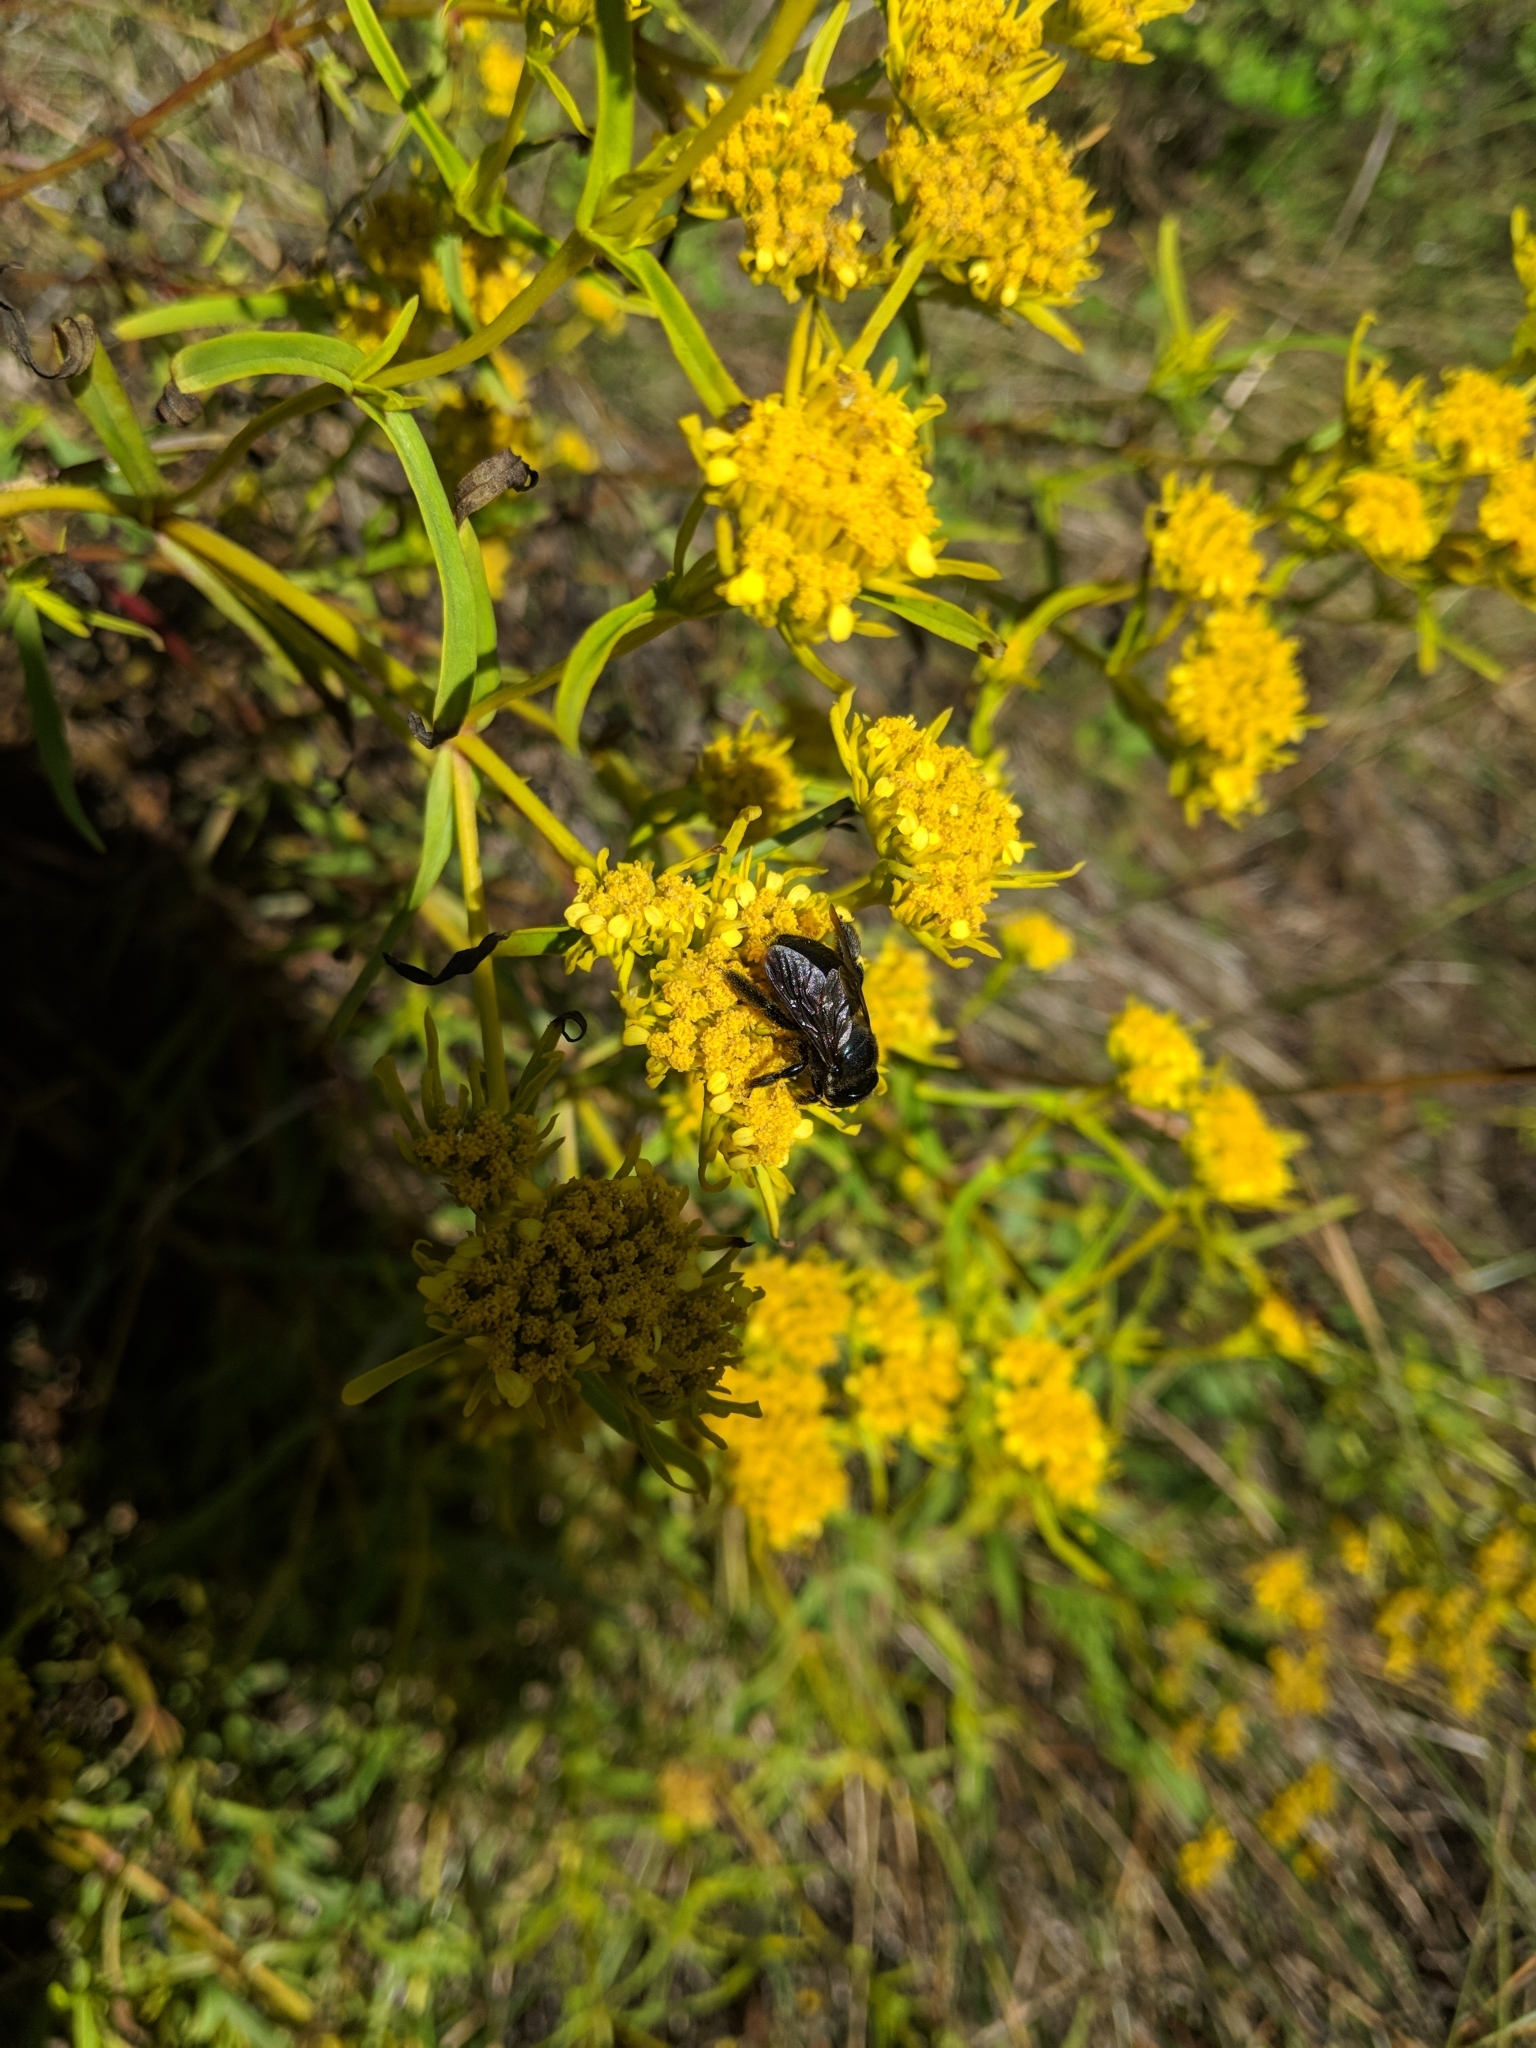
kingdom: Animalia
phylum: Arthropoda
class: Insecta
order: Hymenoptera
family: Apidae
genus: Xylocopa
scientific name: Xylocopa micans
